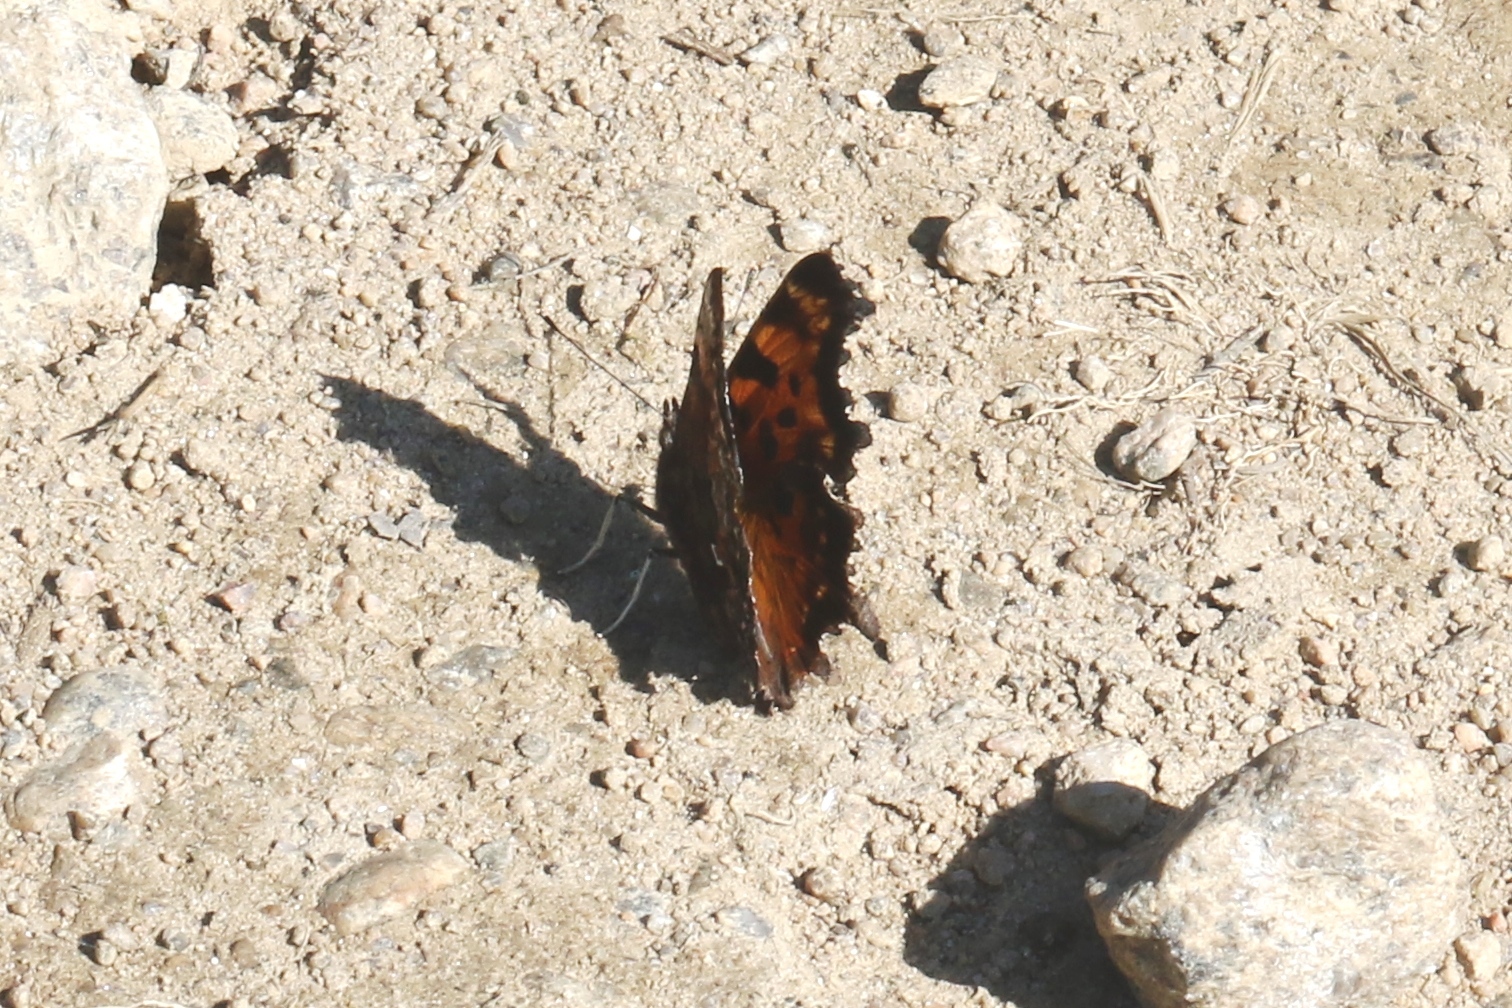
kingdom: Animalia
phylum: Arthropoda
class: Insecta
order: Lepidoptera
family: Nymphalidae
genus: Polygonia
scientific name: Polygonia faunus
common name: Green comma
